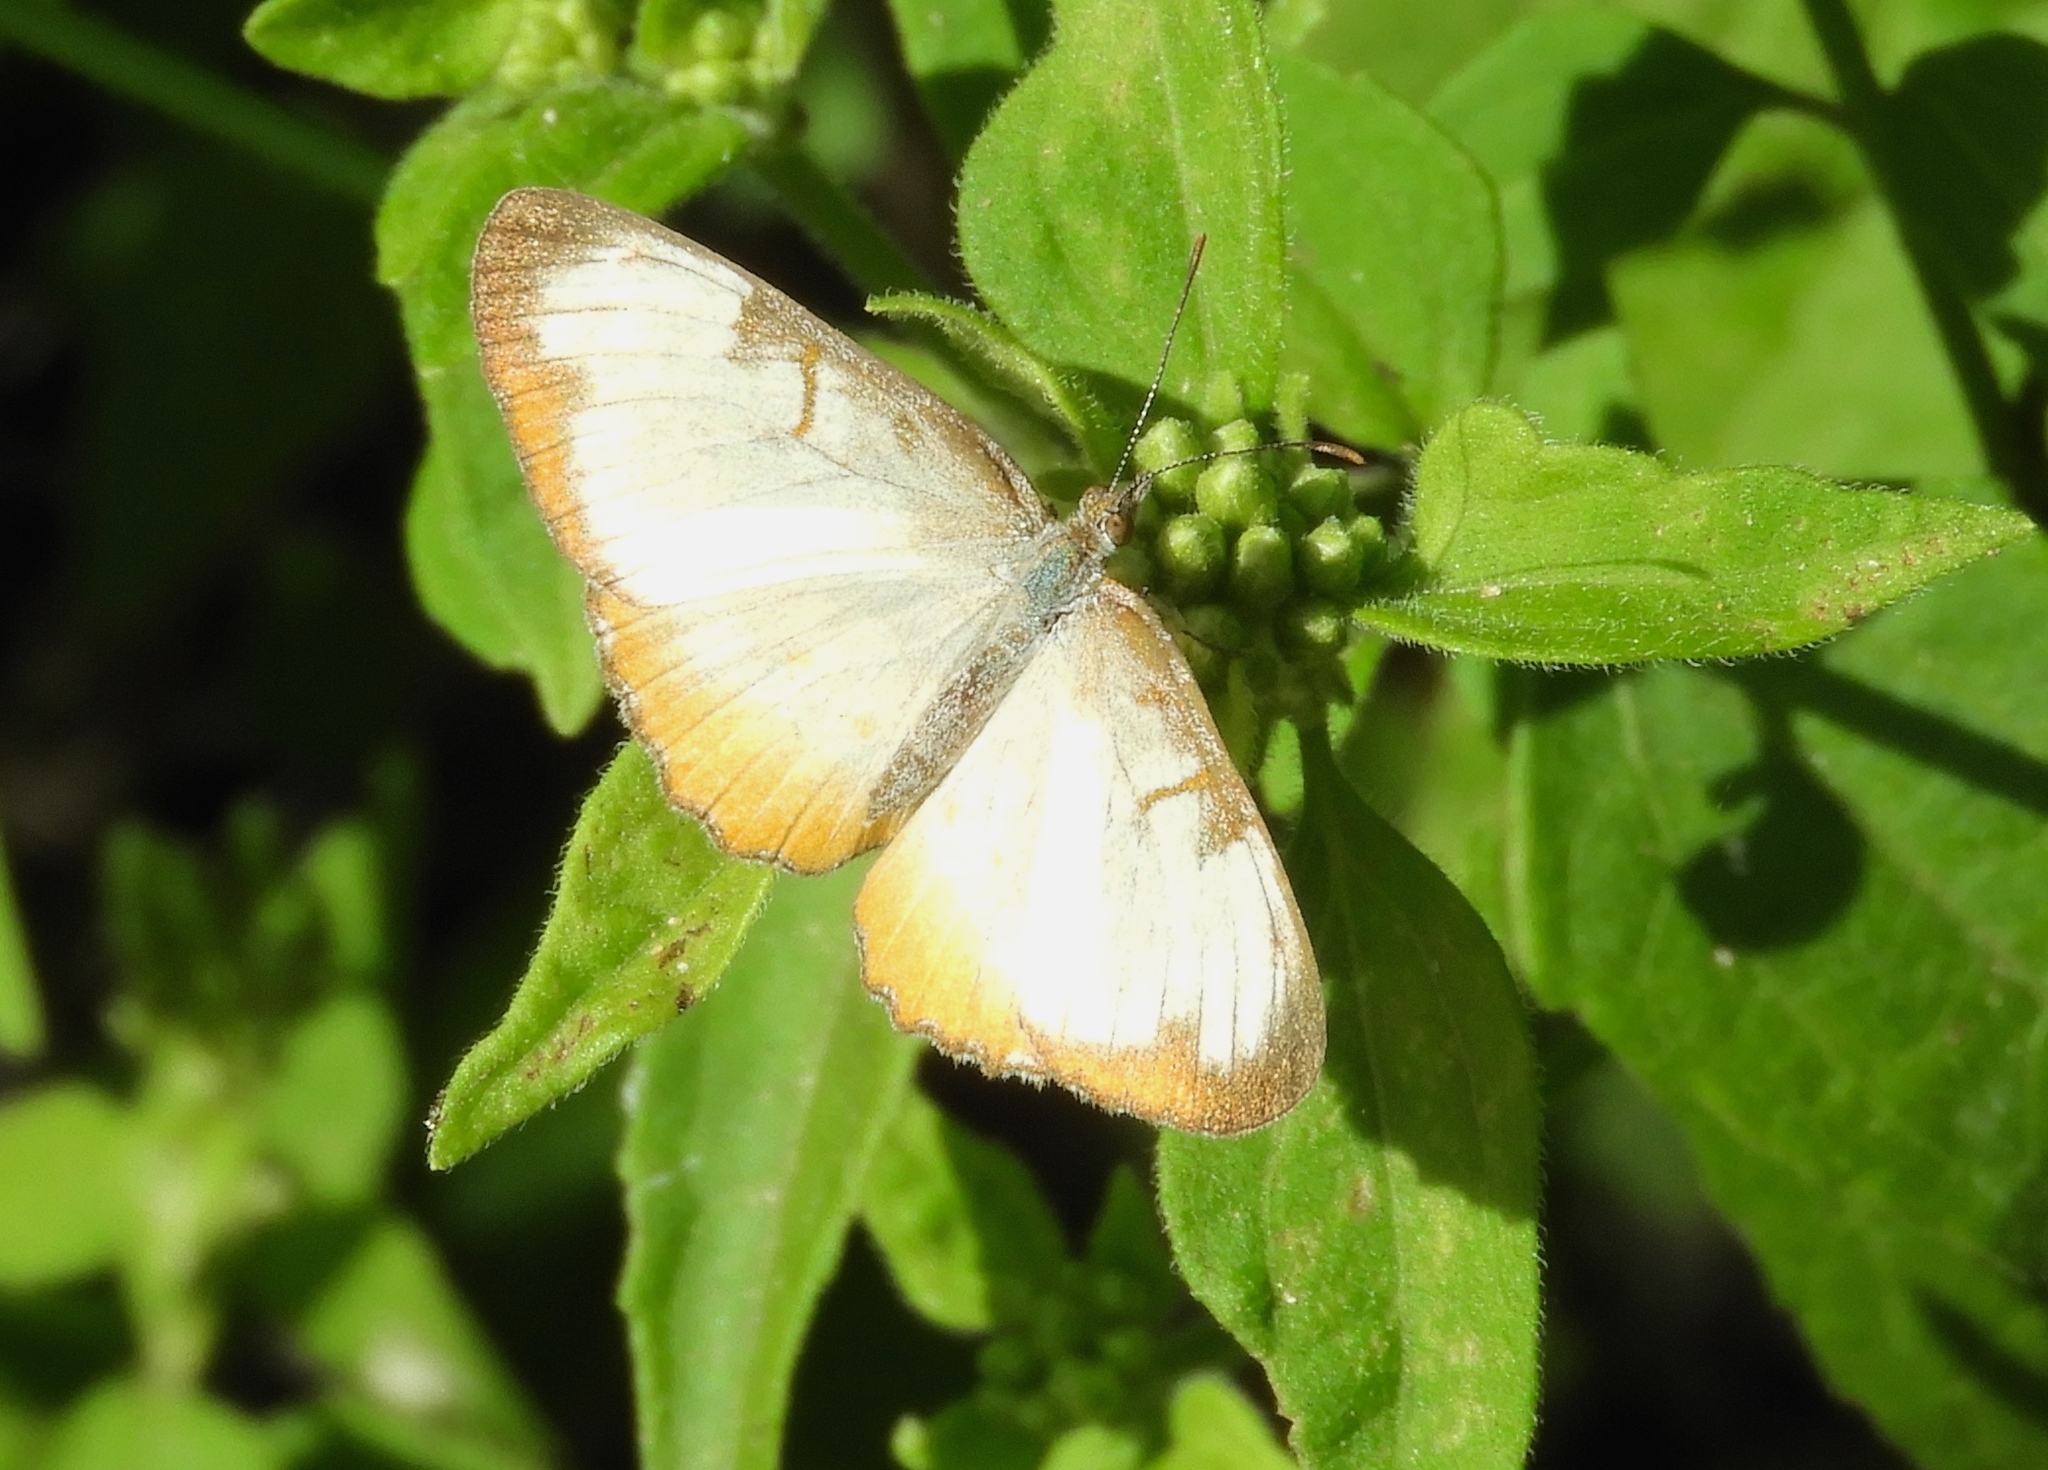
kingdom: Animalia
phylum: Arthropoda
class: Insecta
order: Lepidoptera
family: Nymphalidae
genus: Mestra
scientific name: Mestra amymone
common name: Common mestra
